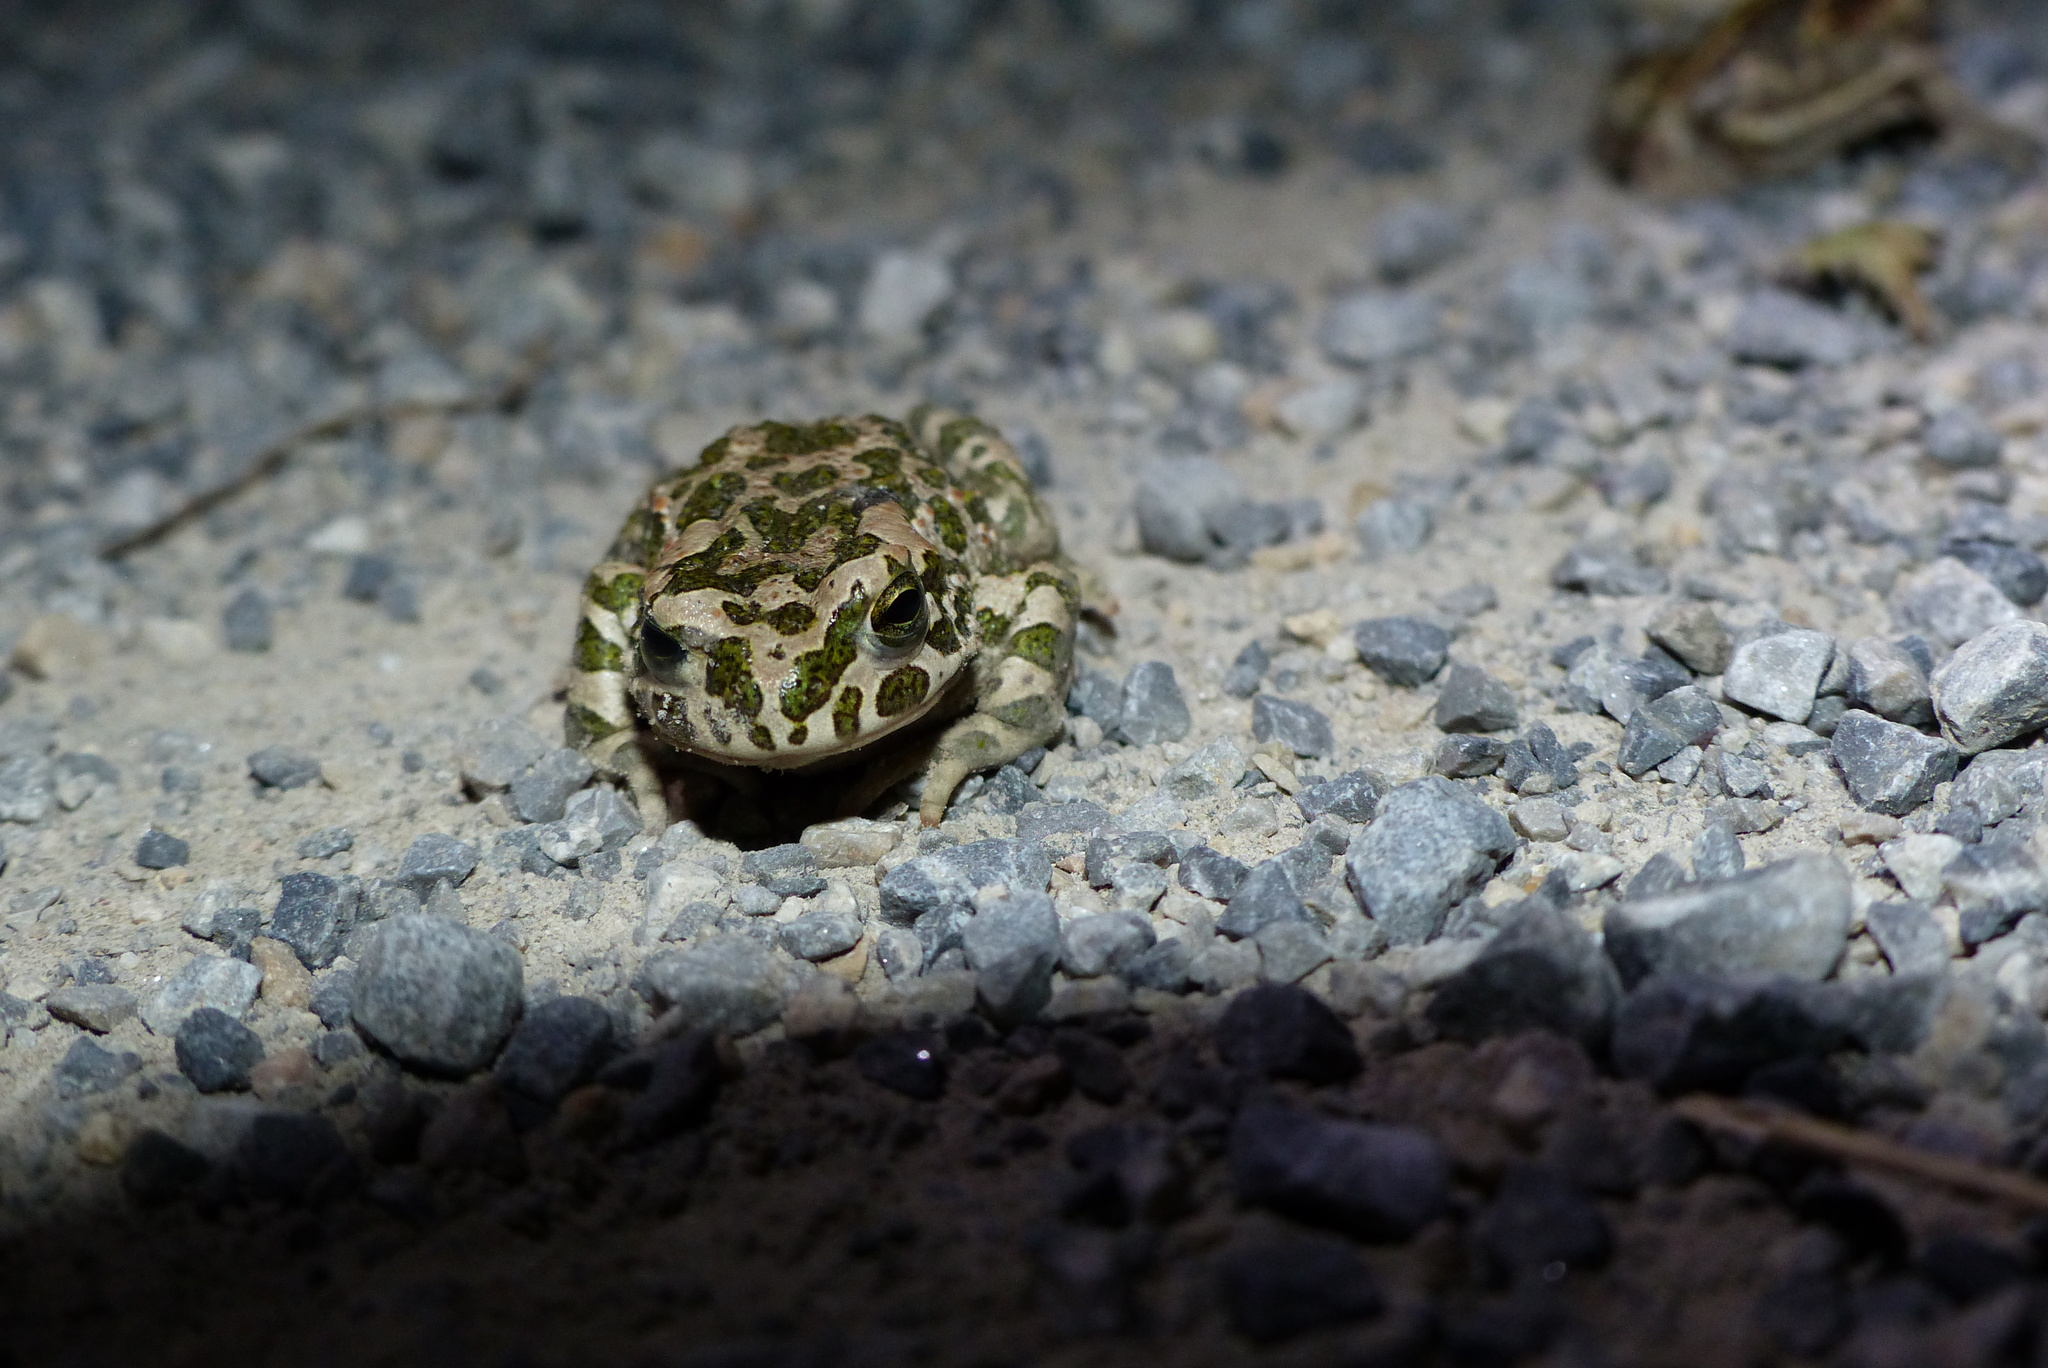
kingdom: Animalia
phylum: Chordata
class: Amphibia
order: Anura
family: Bufonidae
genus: Bufotes
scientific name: Bufotes viridis
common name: European green toad
